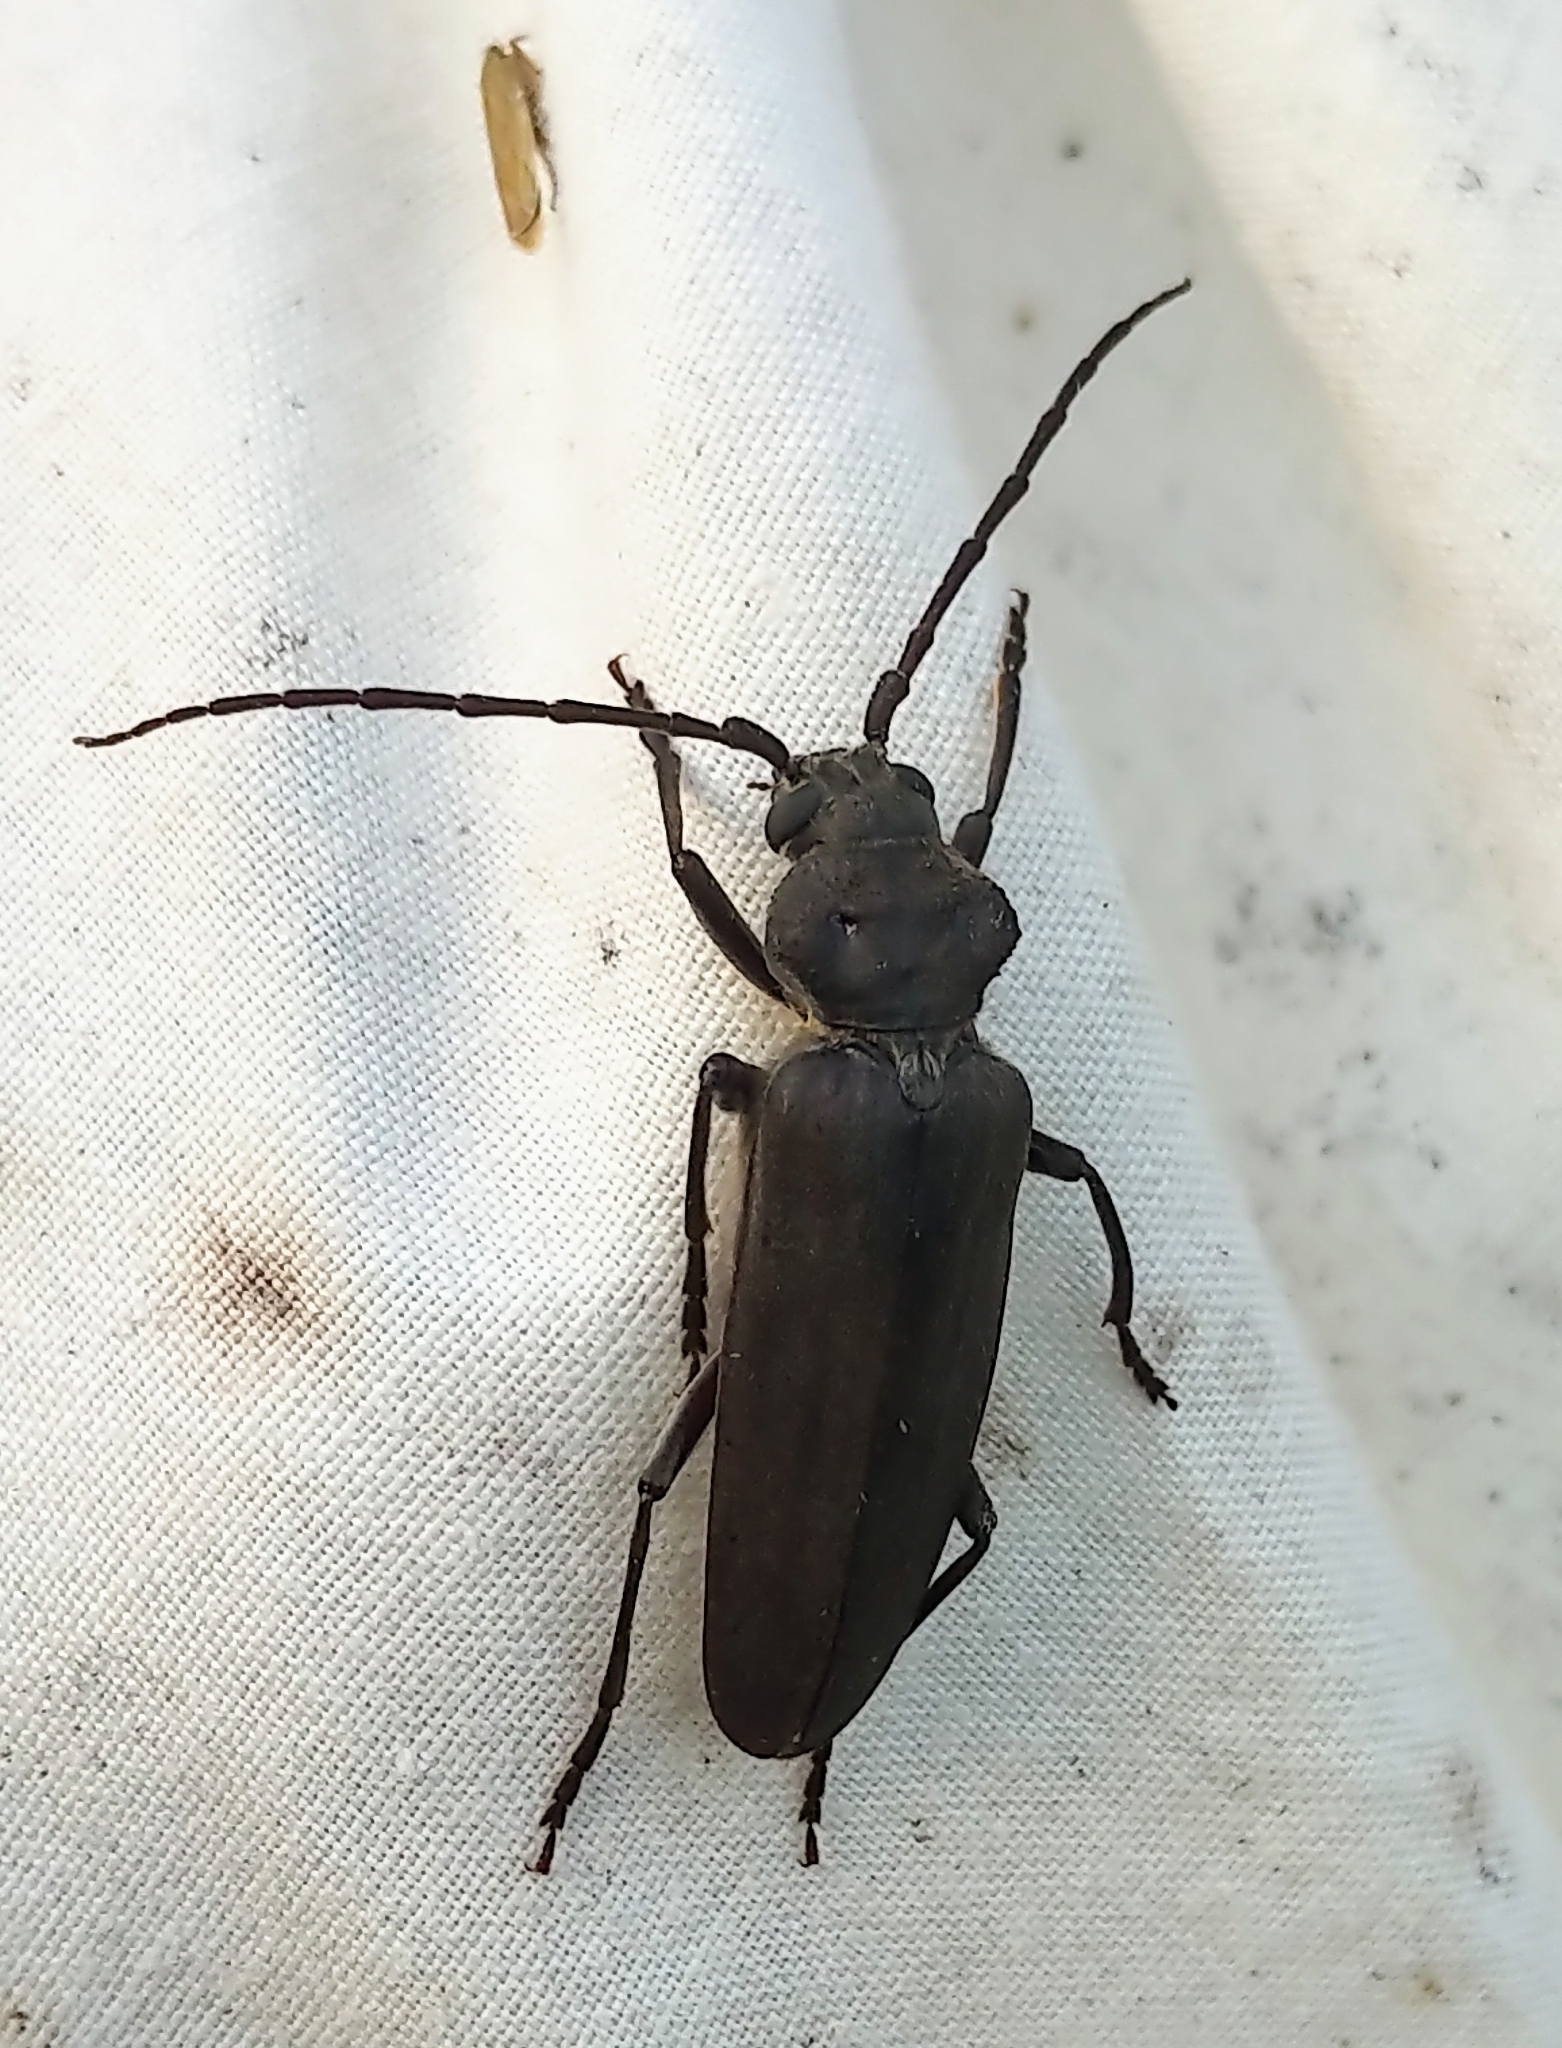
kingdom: Animalia
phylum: Arthropoda
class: Insecta
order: Coleoptera
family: Cerambycidae
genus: Arhopalus
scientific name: Arhopalus asperatus
